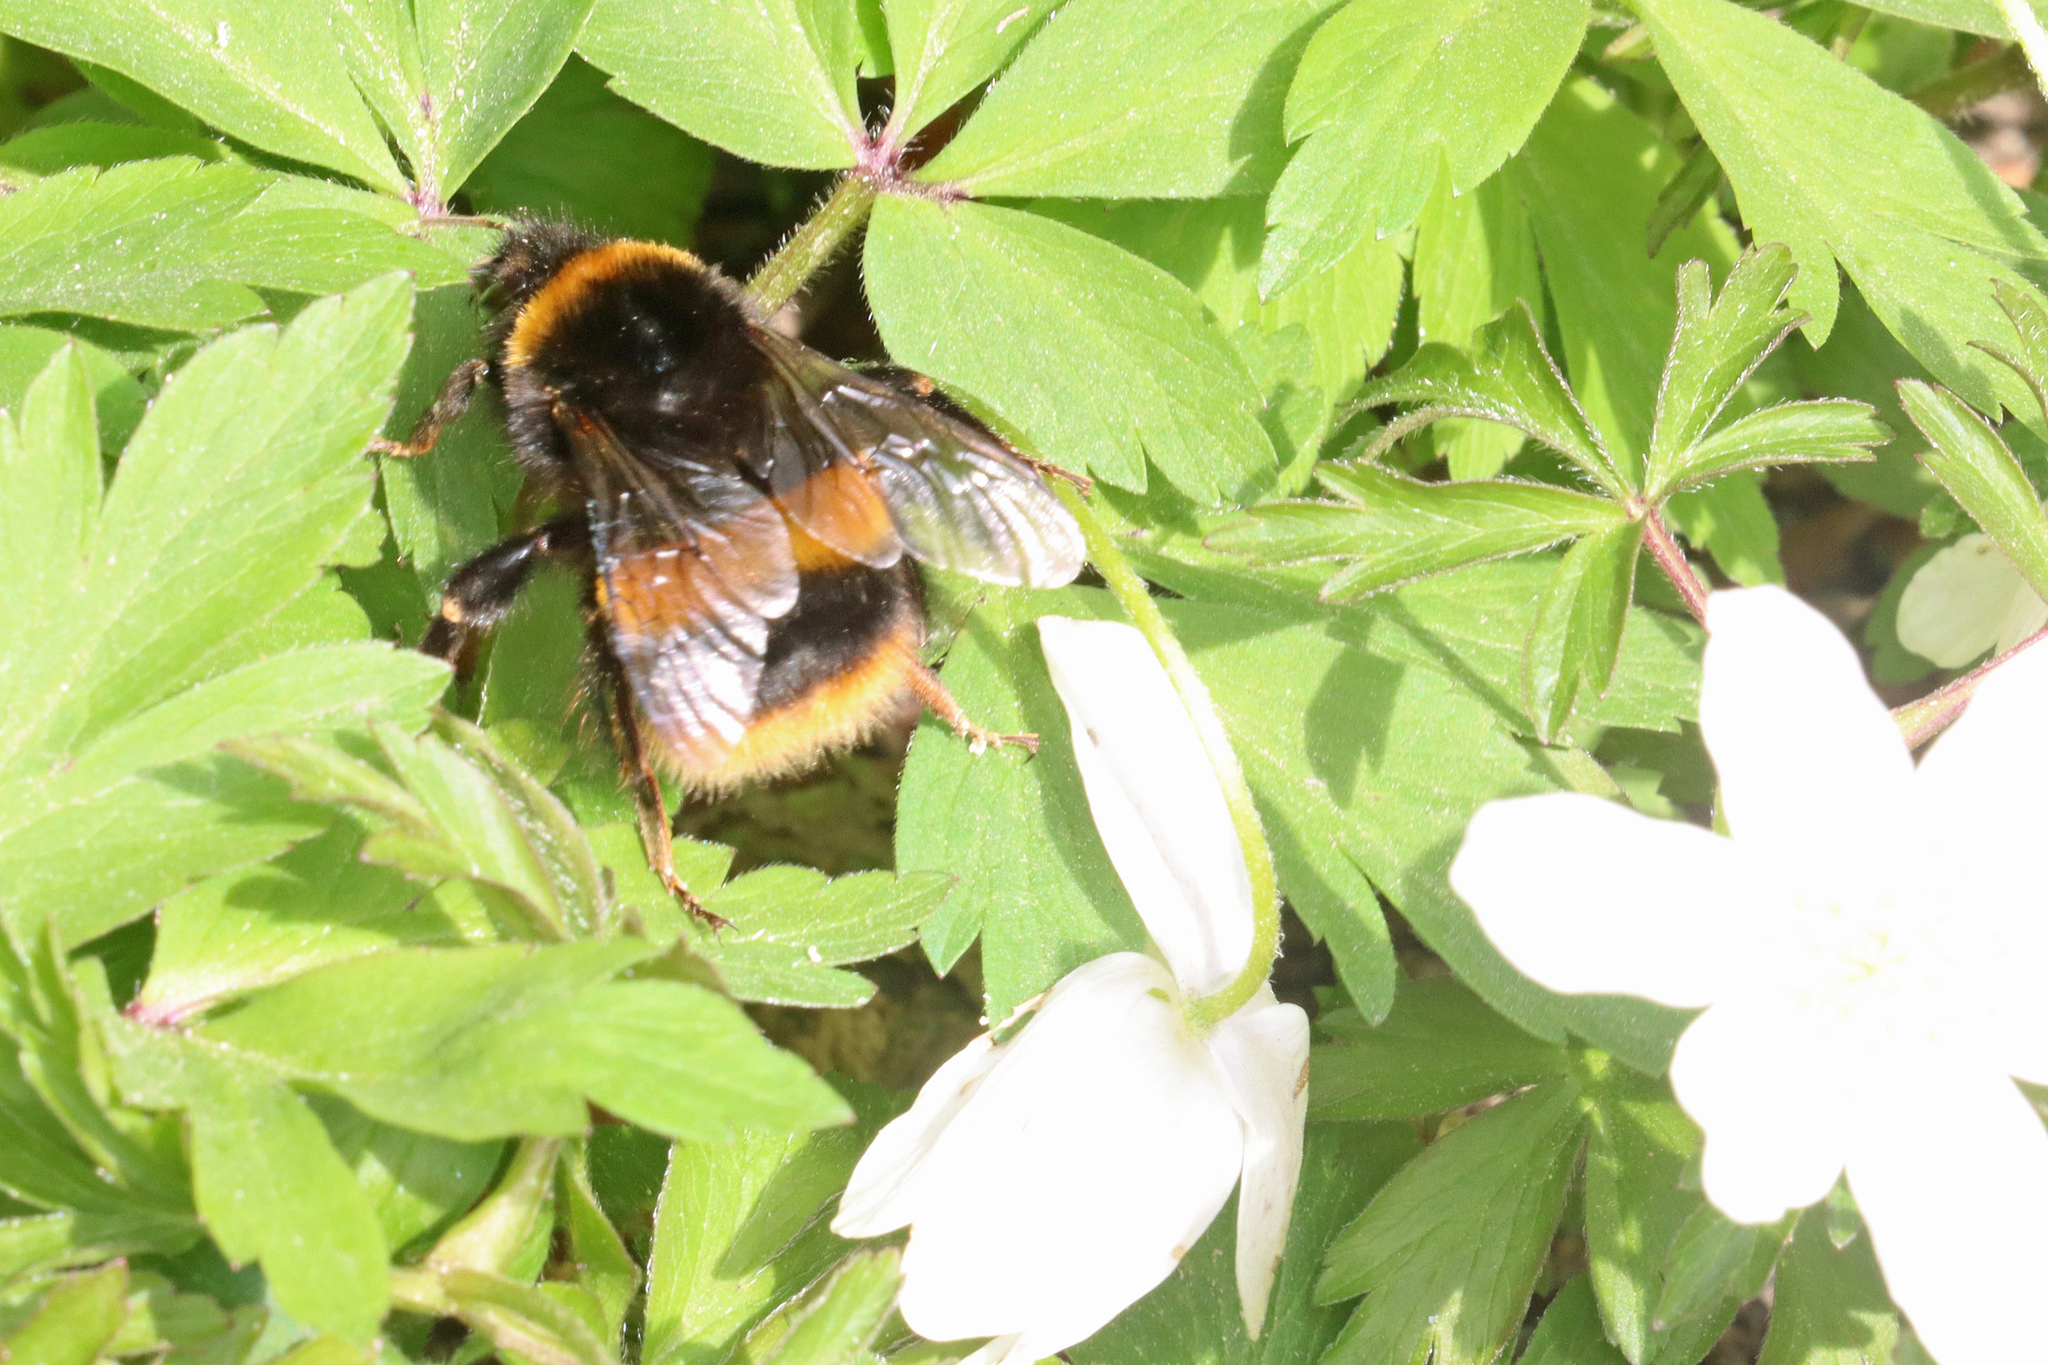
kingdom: Animalia
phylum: Arthropoda
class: Insecta
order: Hymenoptera
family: Apidae
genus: Bombus
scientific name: Bombus terrestris
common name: Buff-tailed bumblebee
